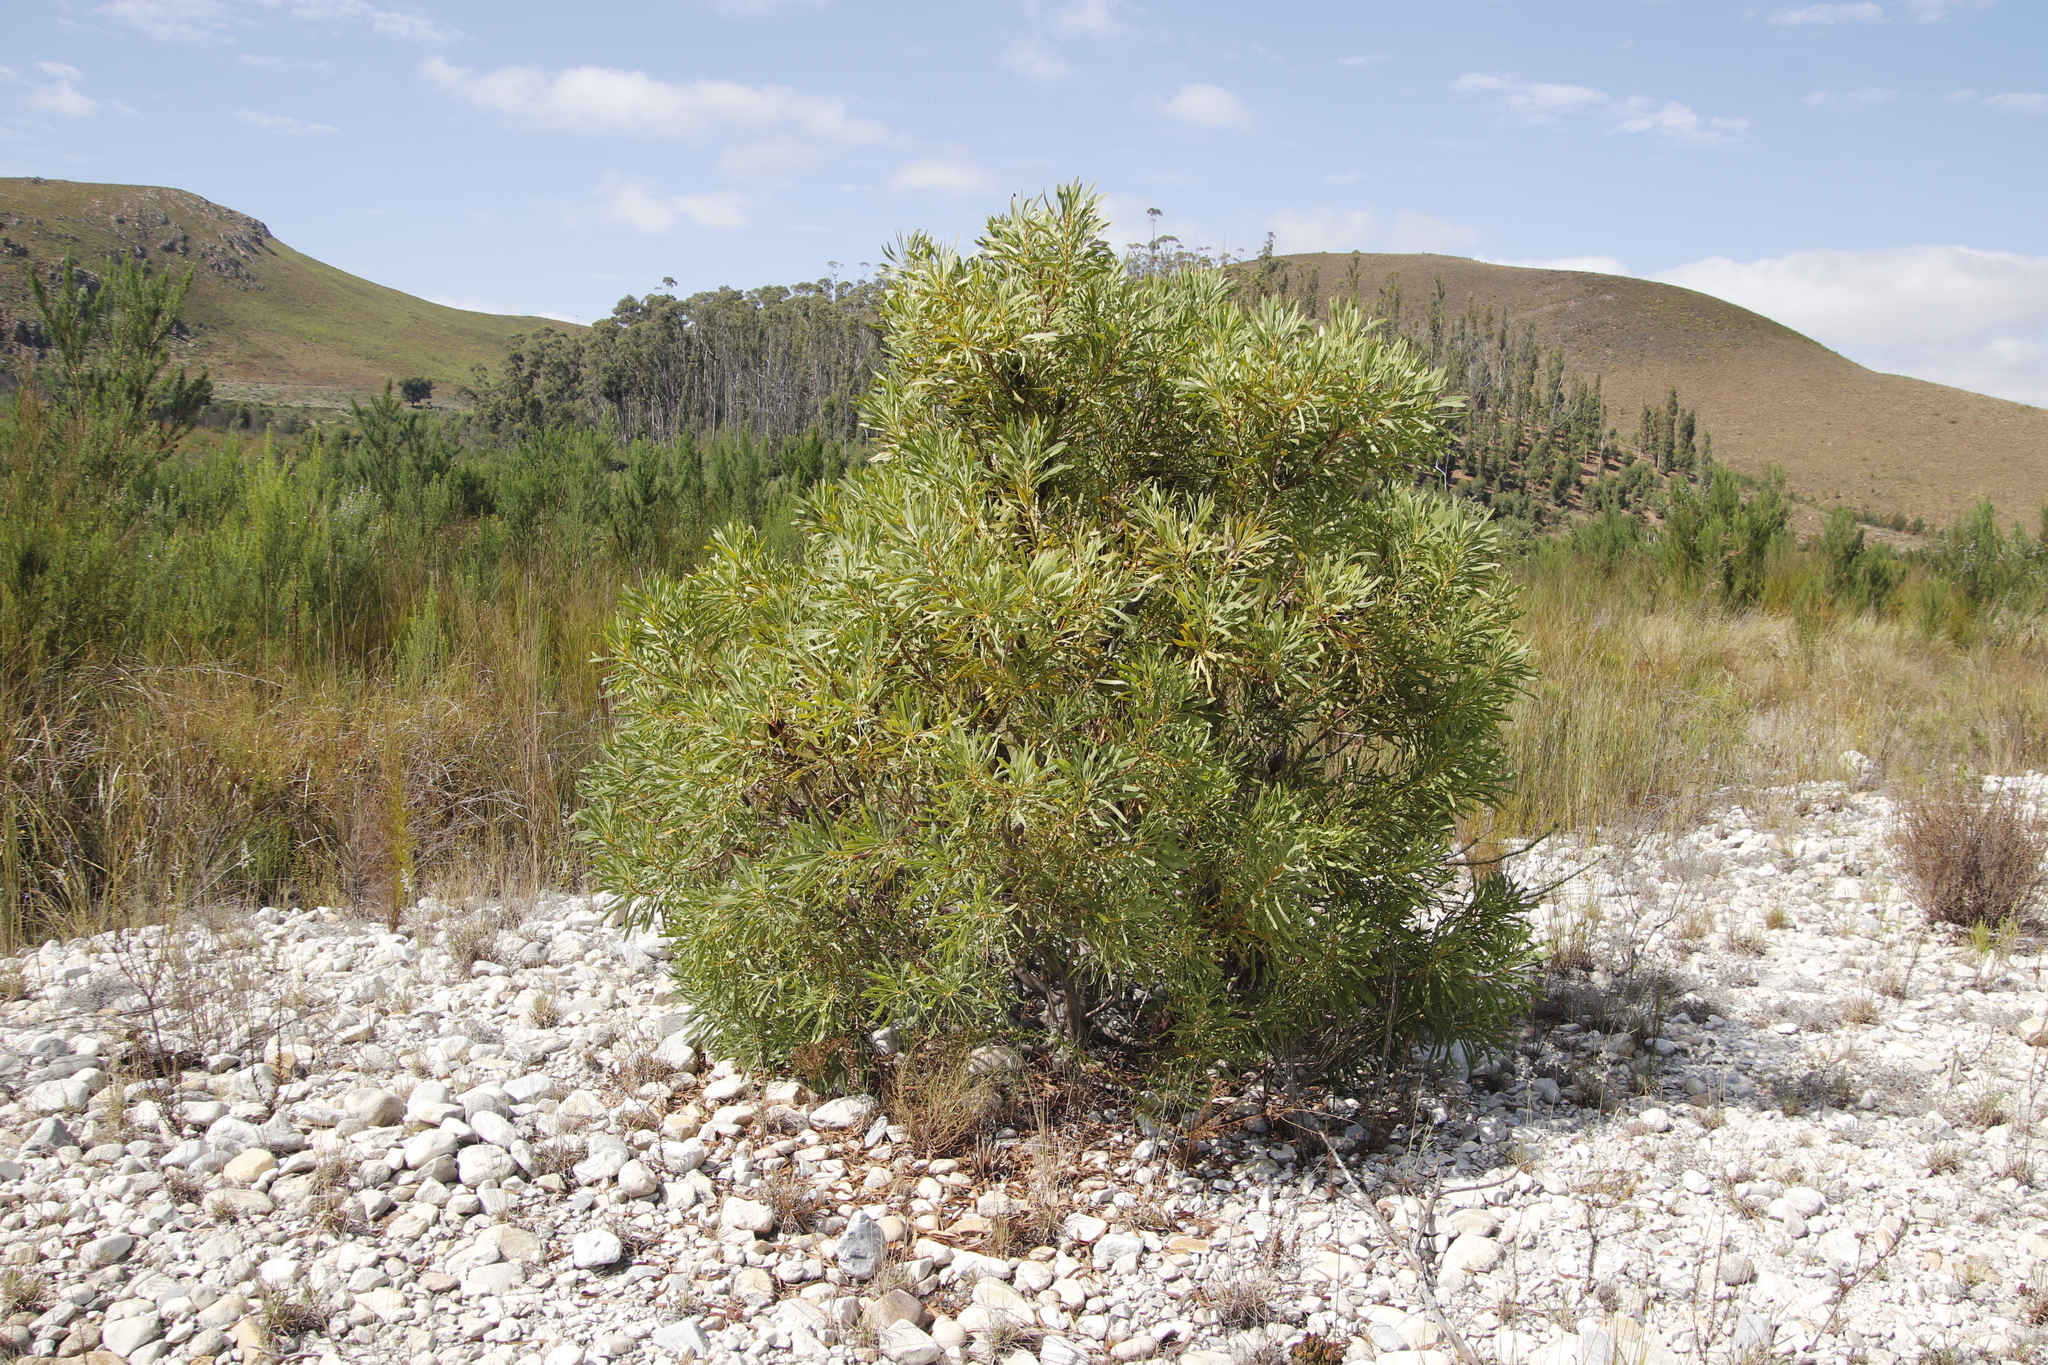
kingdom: Plantae
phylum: Tracheophyta
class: Magnoliopsida
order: Proteales
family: Proteaceae
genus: Protea
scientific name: Protea repens
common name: Sugarbush
